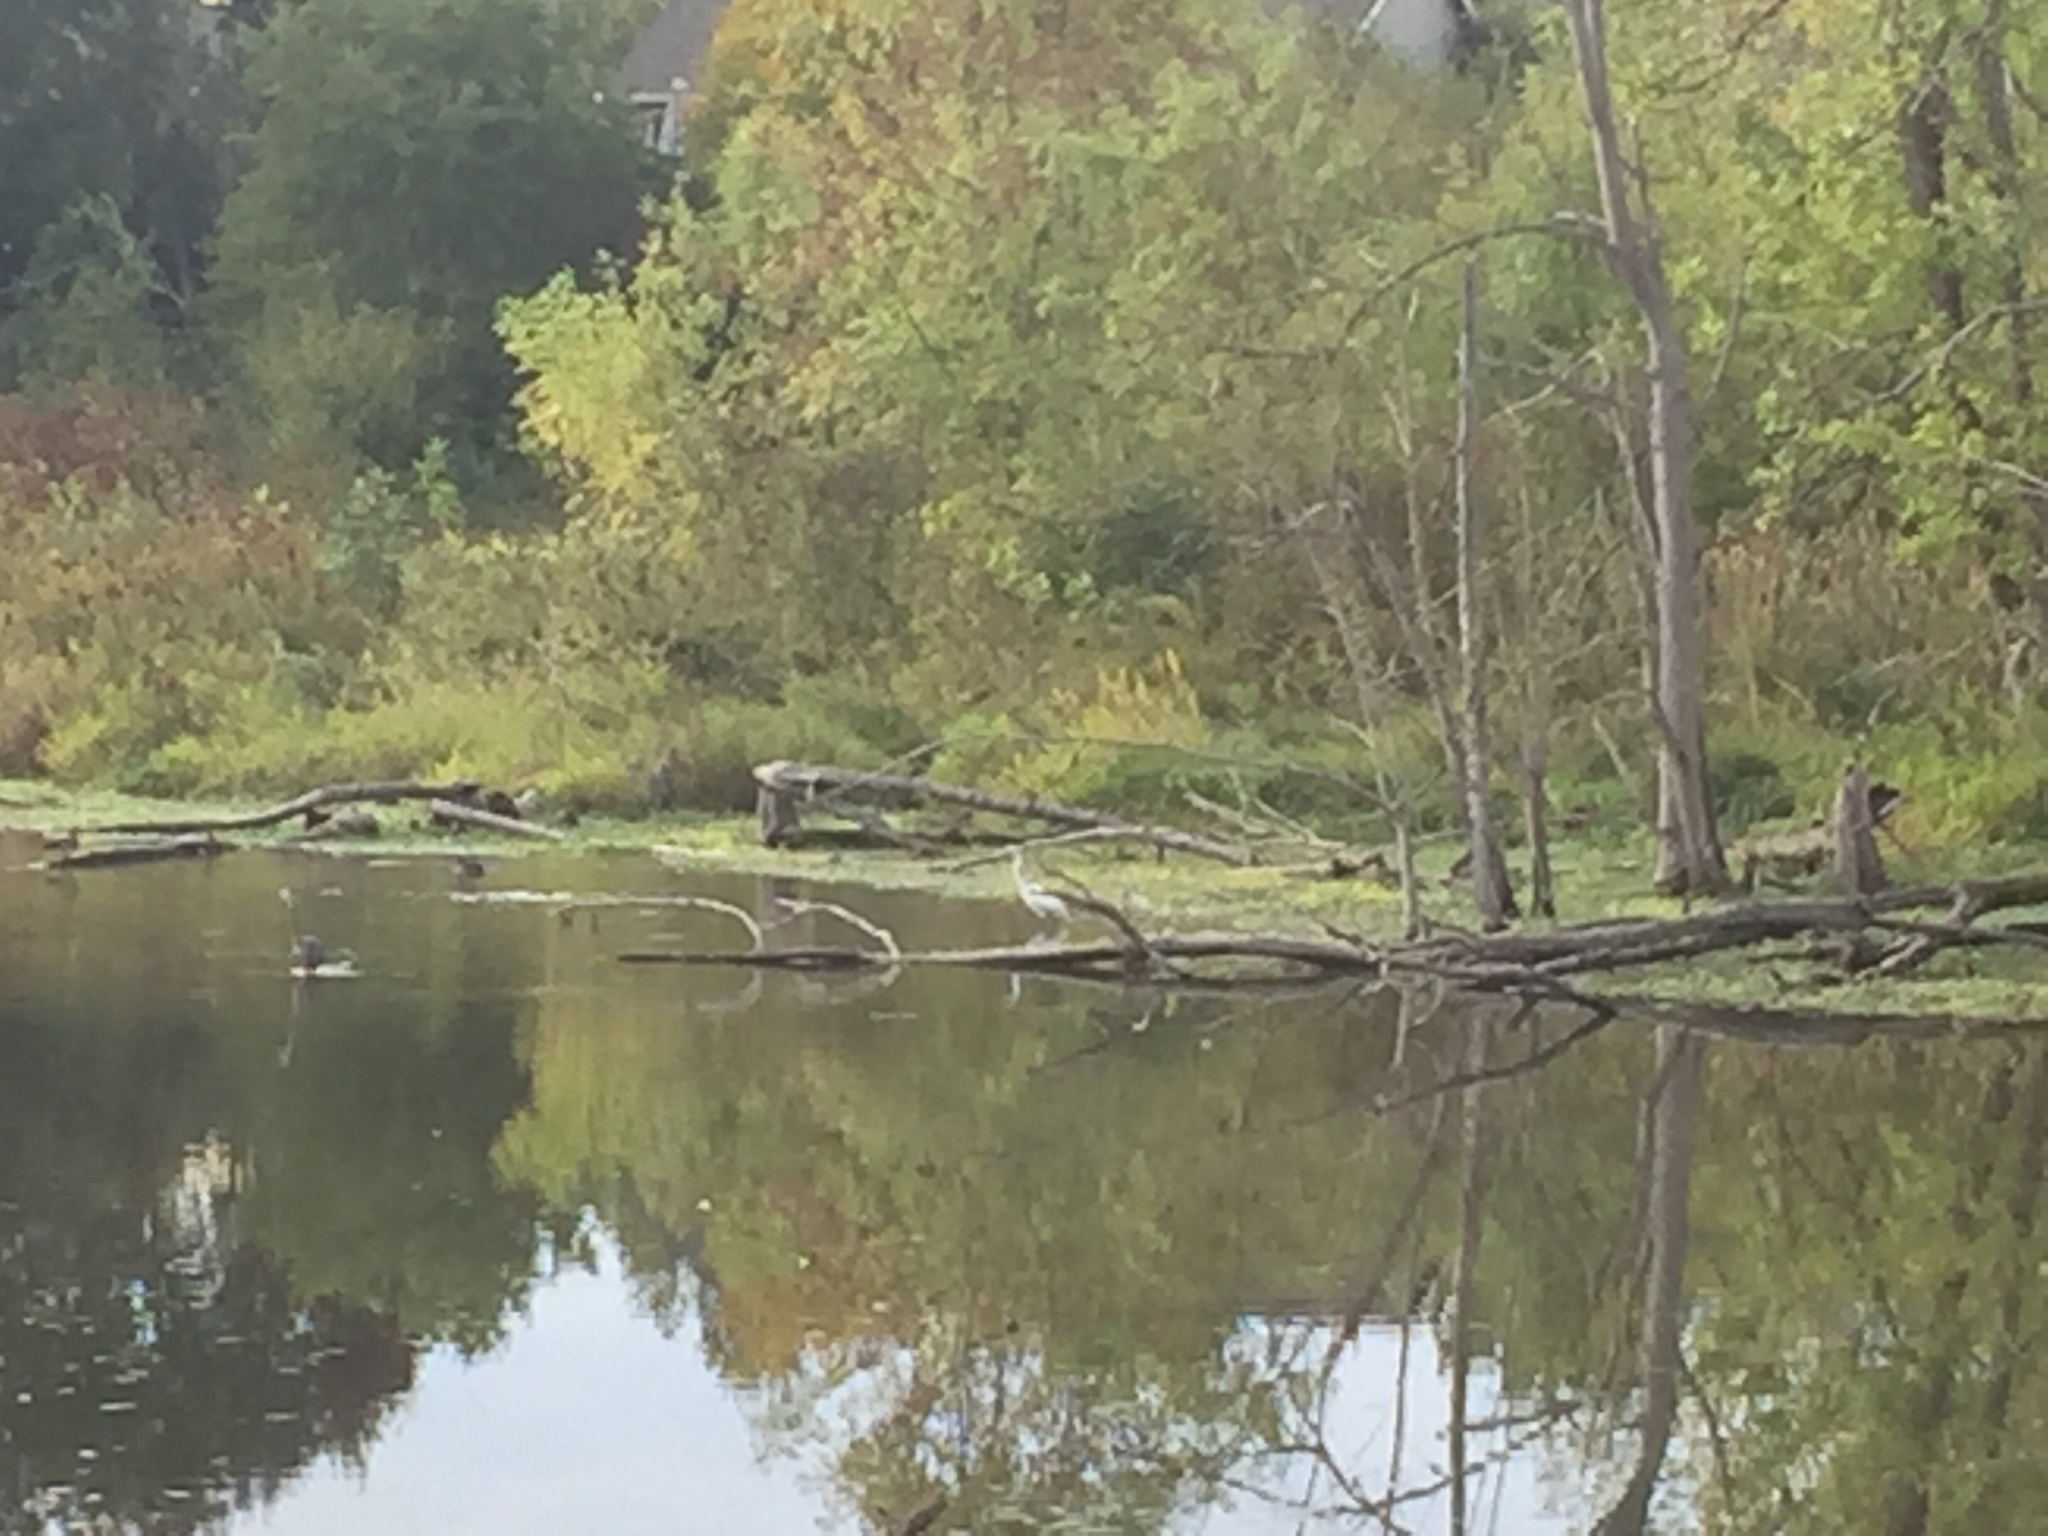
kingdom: Animalia
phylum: Chordata
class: Aves
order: Pelecaniformes
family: Ardeidae
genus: Ardea
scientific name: Ardea alba
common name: Great egret
